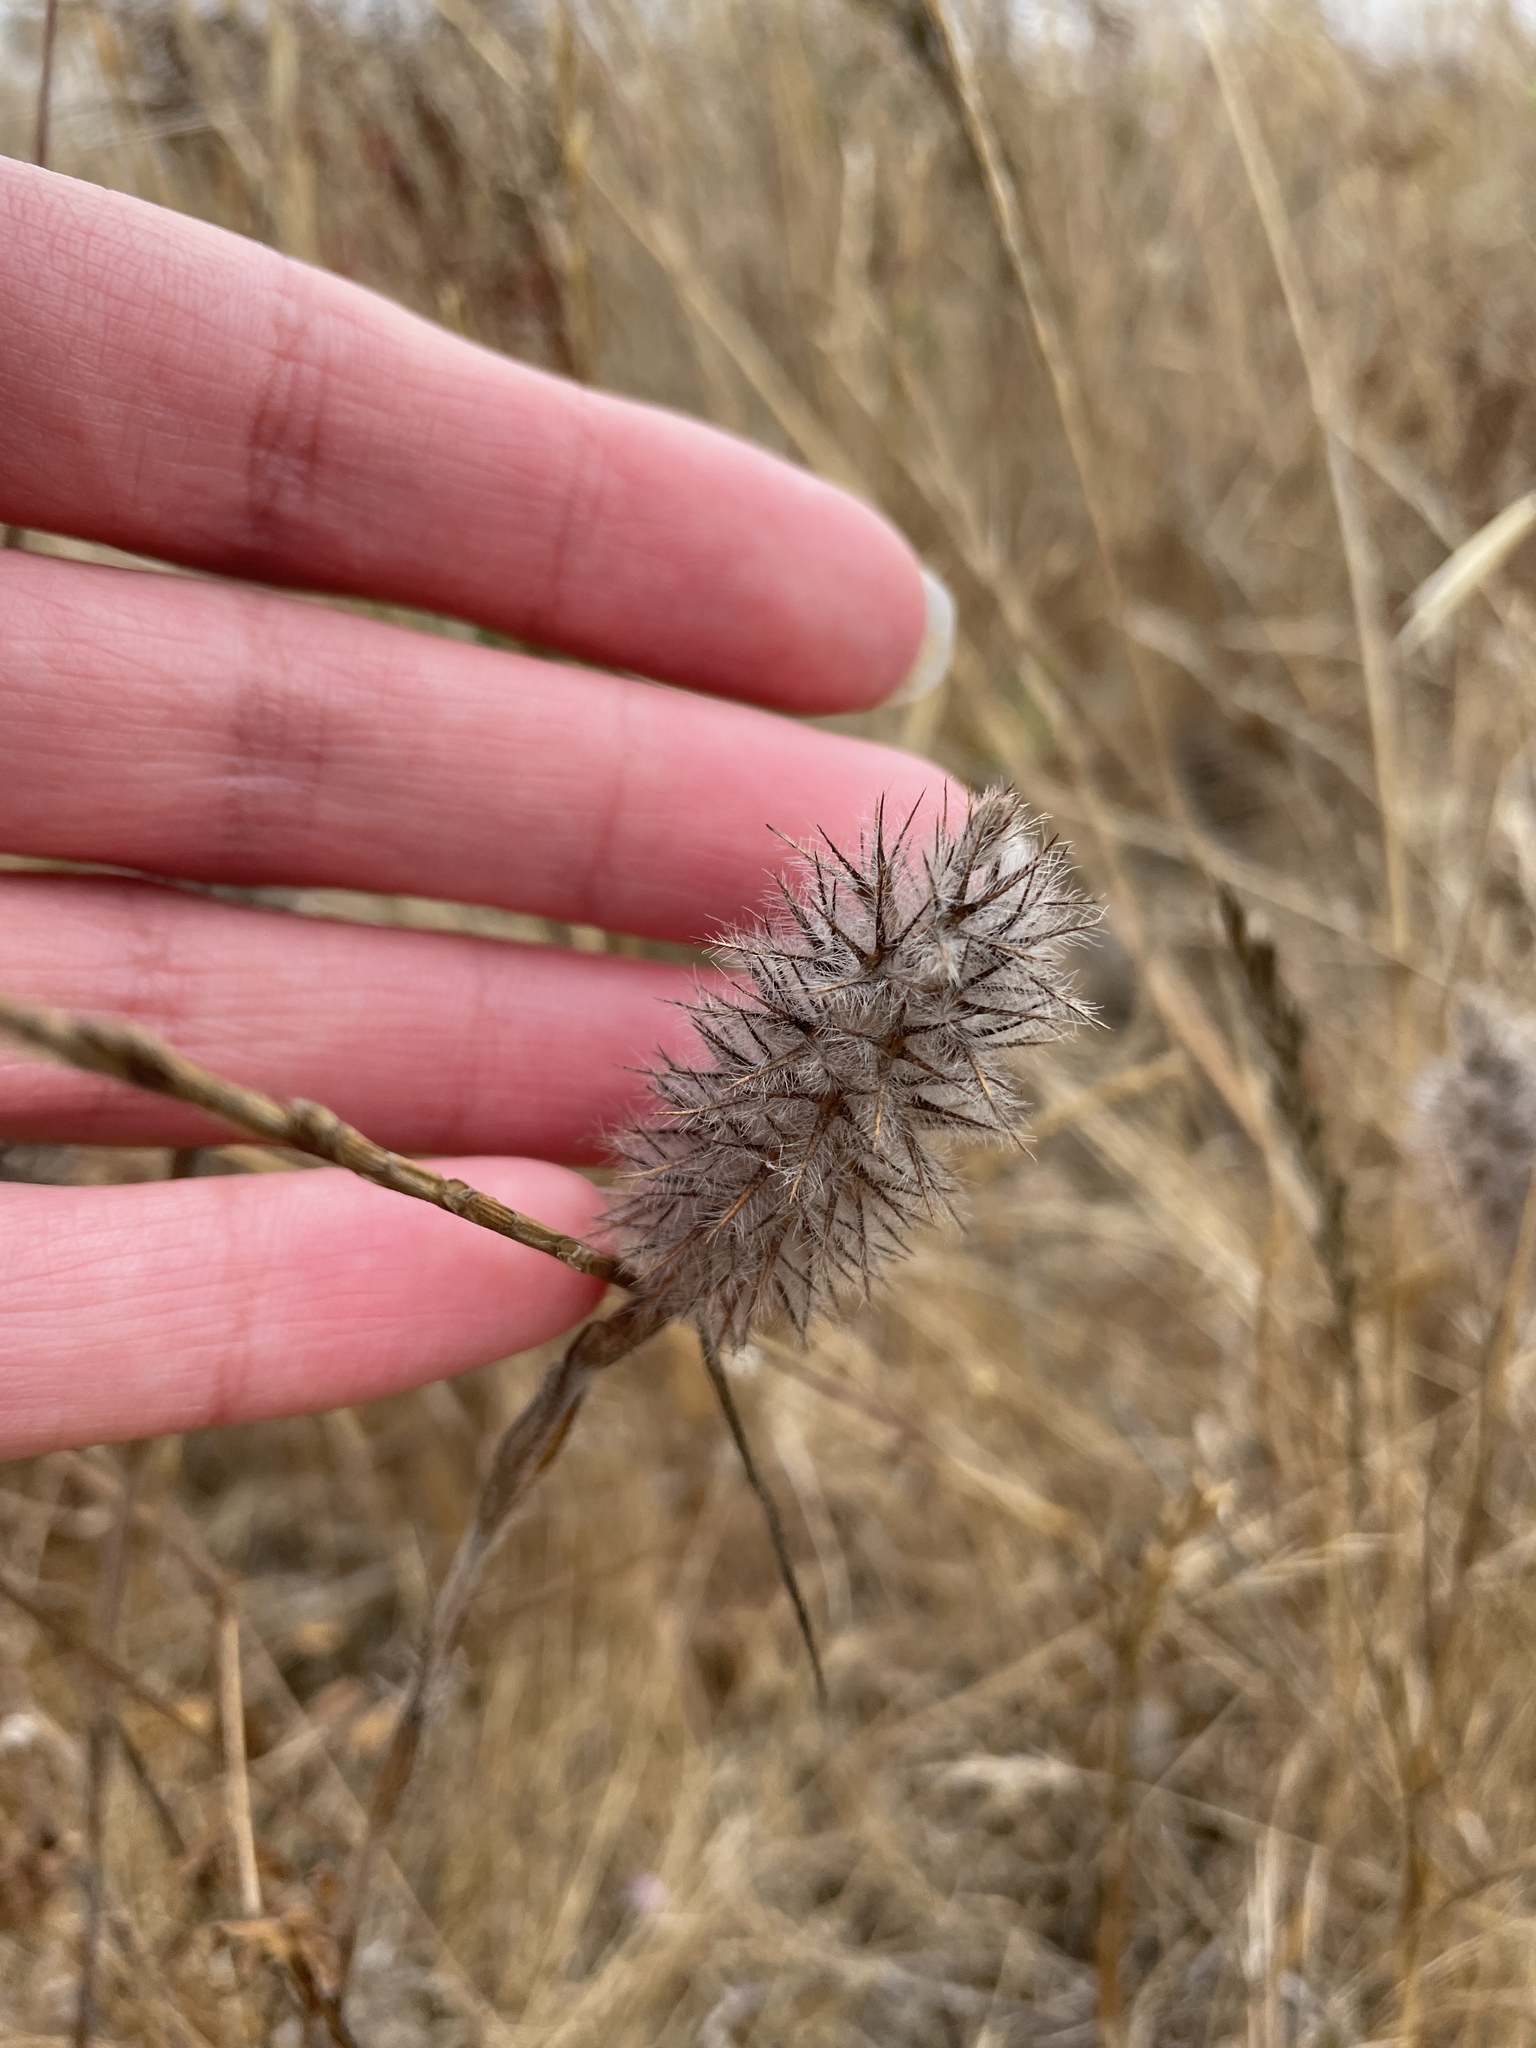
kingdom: Plantae
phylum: Tracheophyta
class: Magnoliopsida
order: Fabales
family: Fabaceae
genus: Trifolium
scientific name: Trifolium angustifolium
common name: Narrow clover
